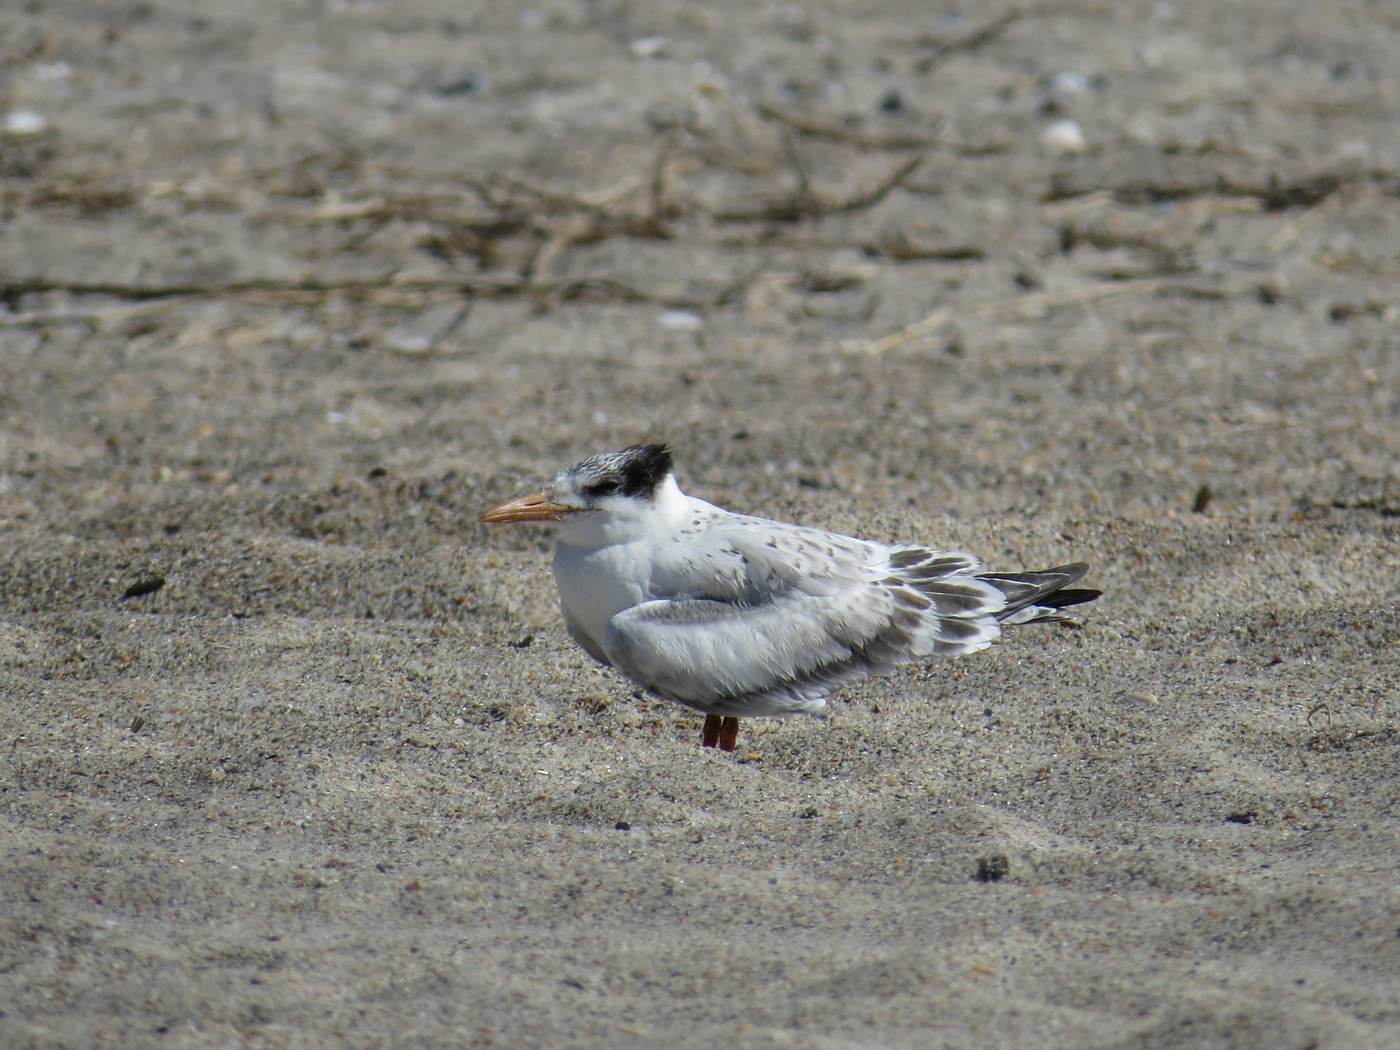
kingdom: Animalia
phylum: Chordata
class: Aves
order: Charadriiformes
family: Laridae
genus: Thalasseus
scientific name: Thalasseus maximus
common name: Royal tern
